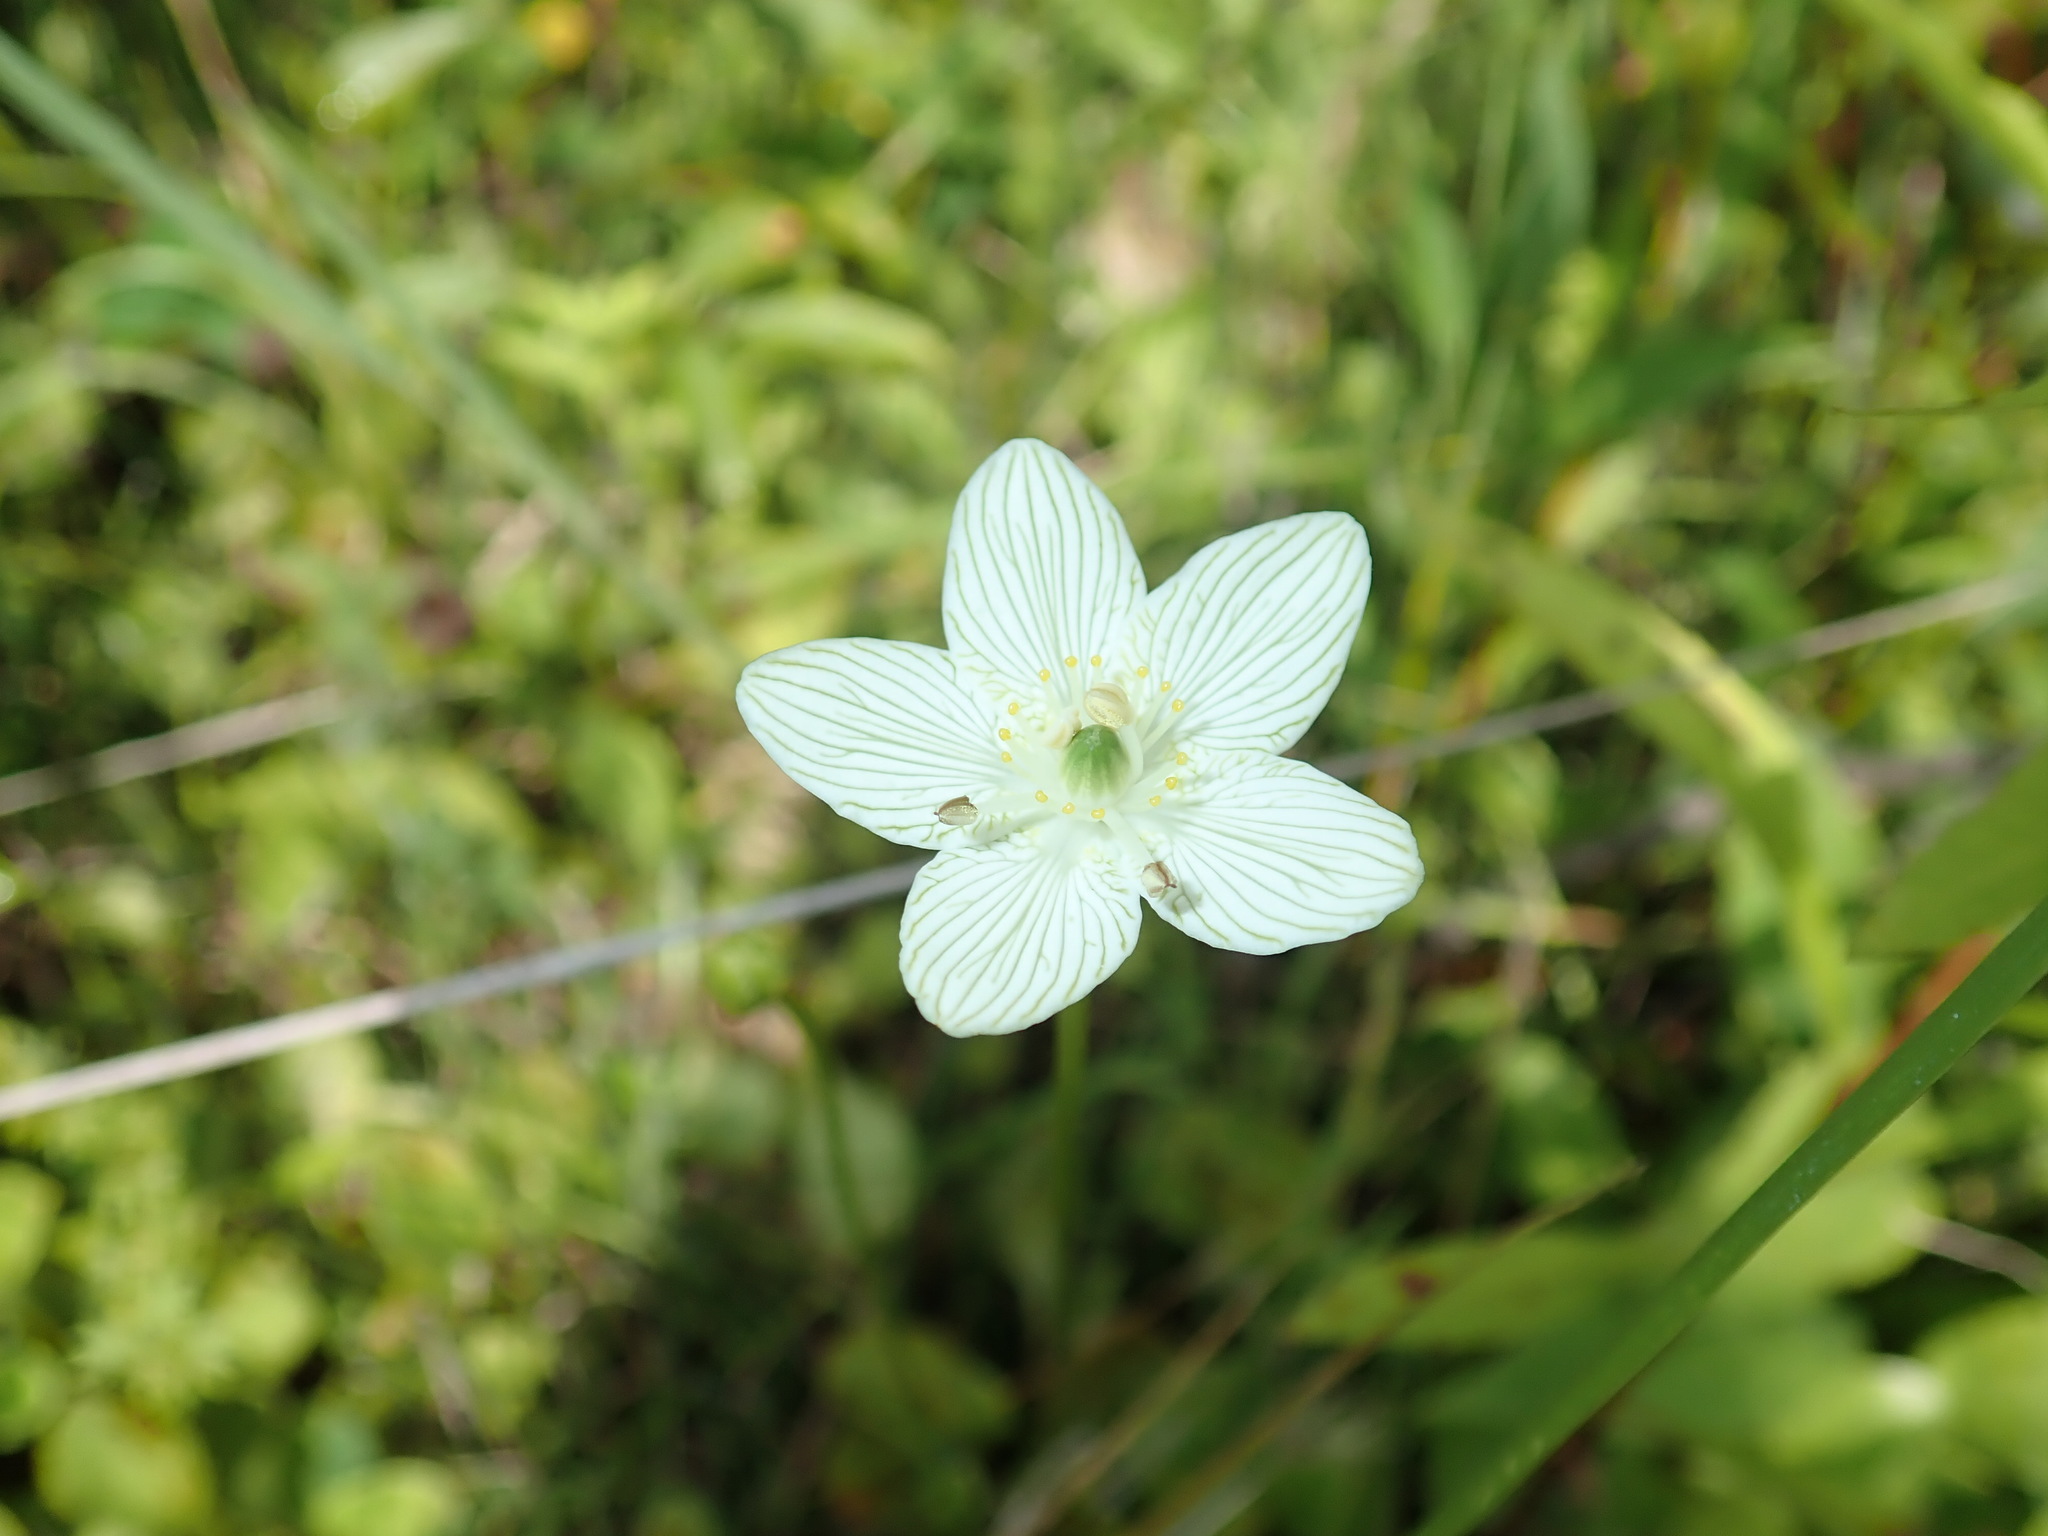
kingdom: Plantae
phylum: Tracheophyta
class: Magnoliopsida
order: Celastrales
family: Parnassiaceae
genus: Parnassia
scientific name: Parnassia glauca
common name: American grass-of-parnassus
